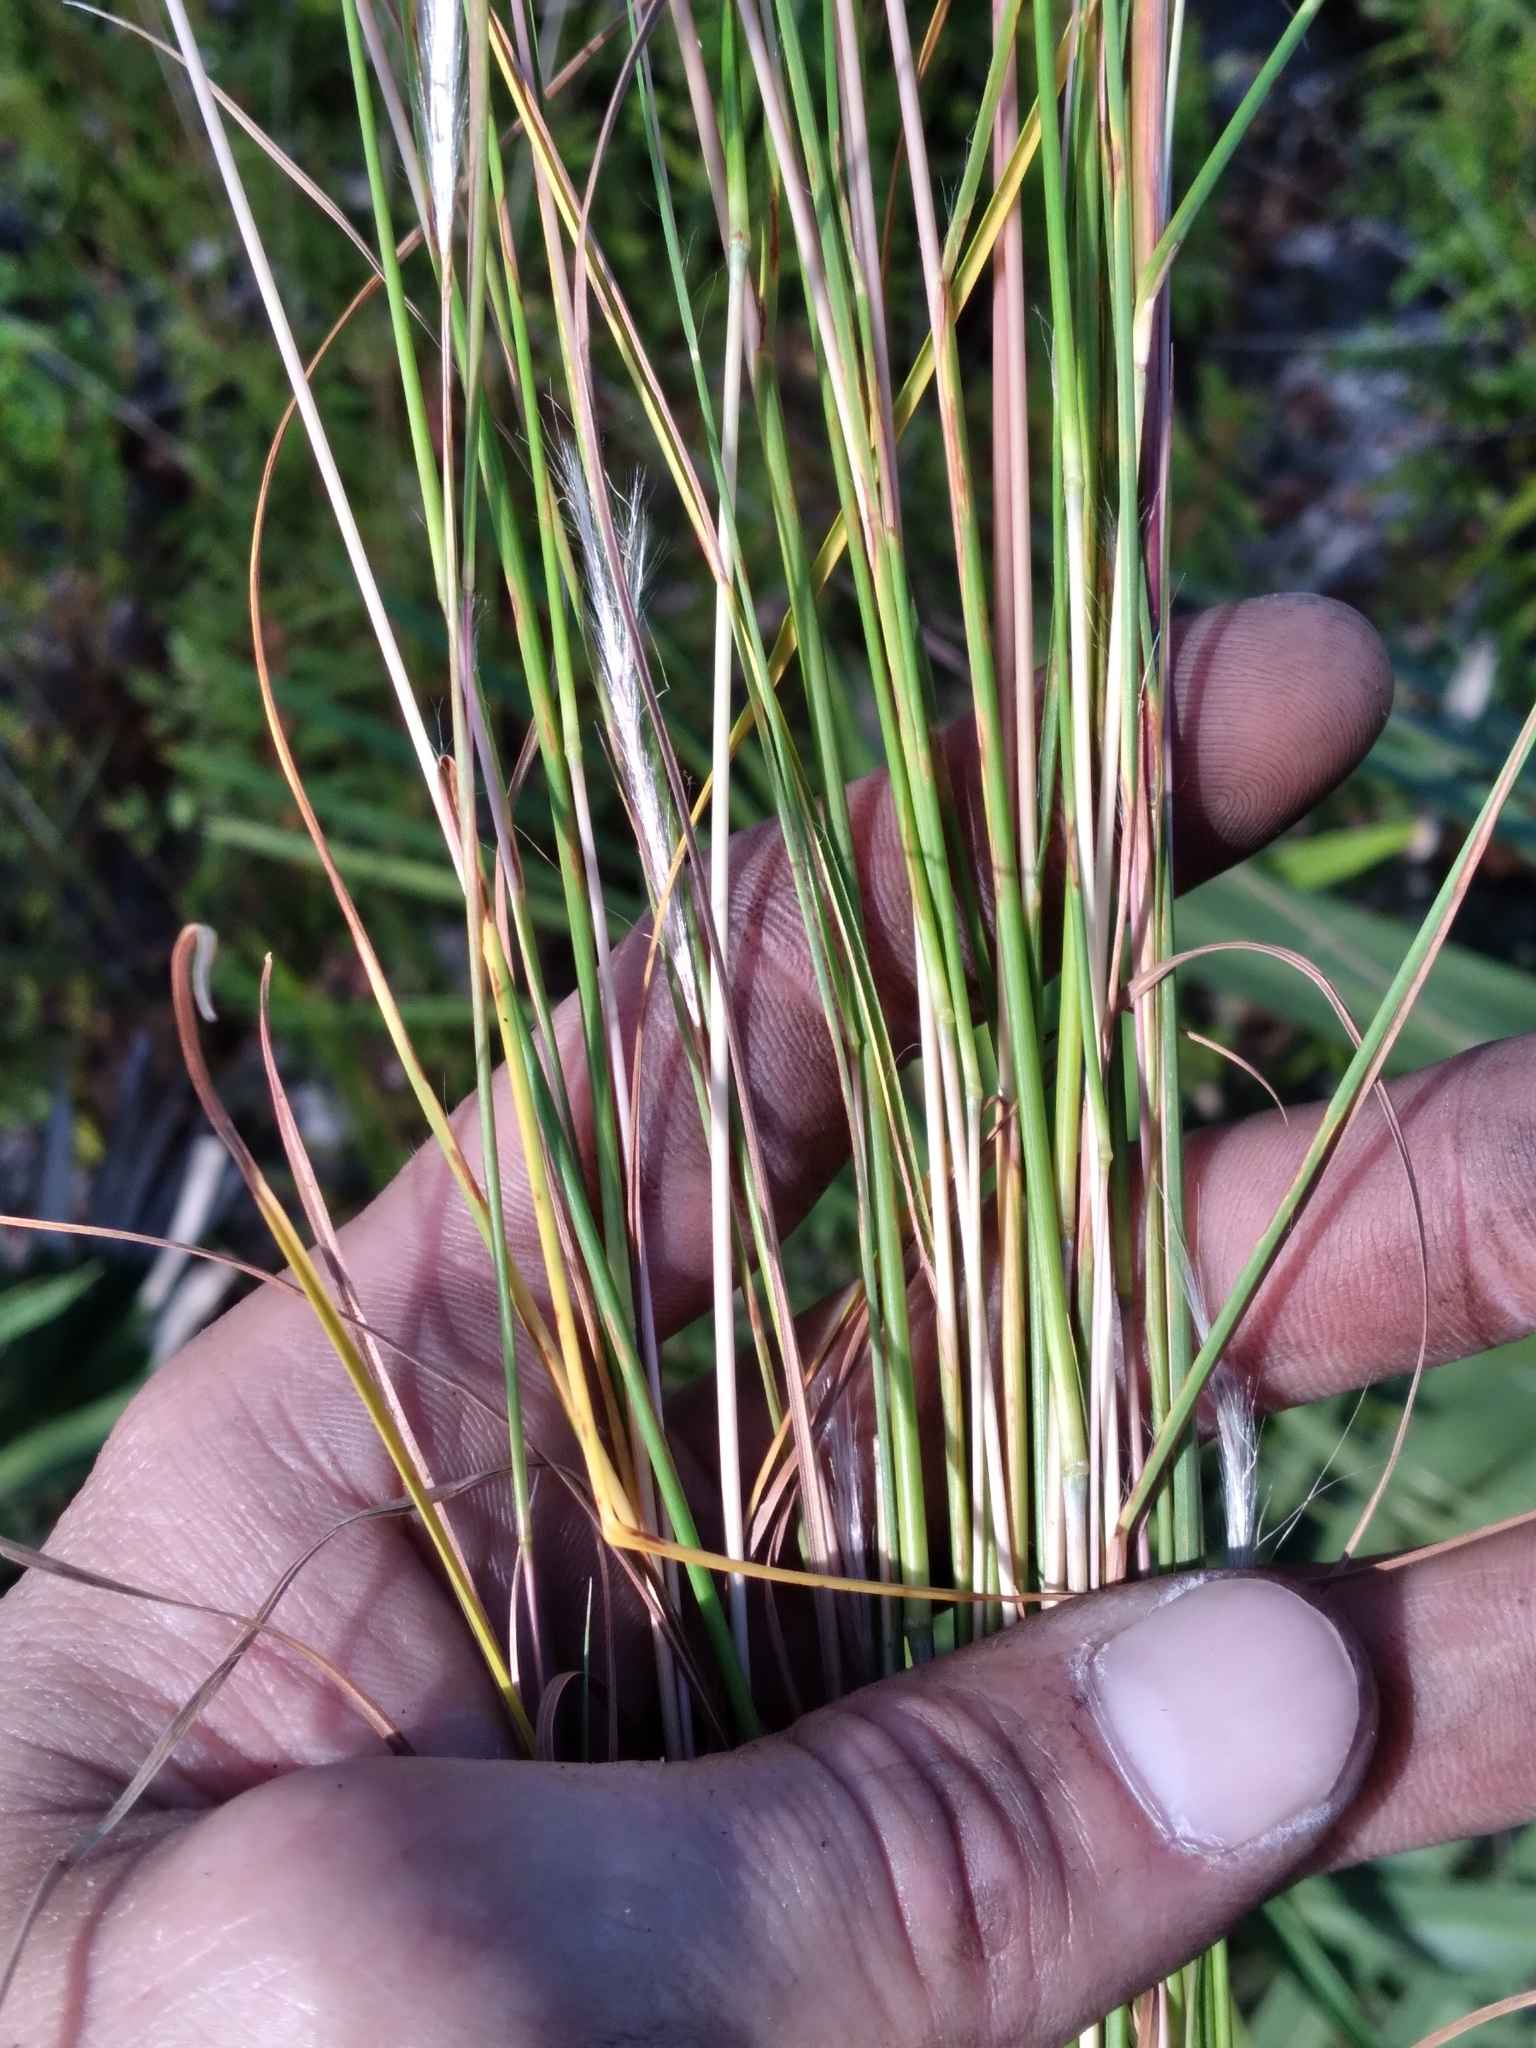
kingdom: Plantae
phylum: Tracheophyta
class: Liliopsida
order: Poales
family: Poaceae
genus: Andropogon
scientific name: Andropogon gyrans
